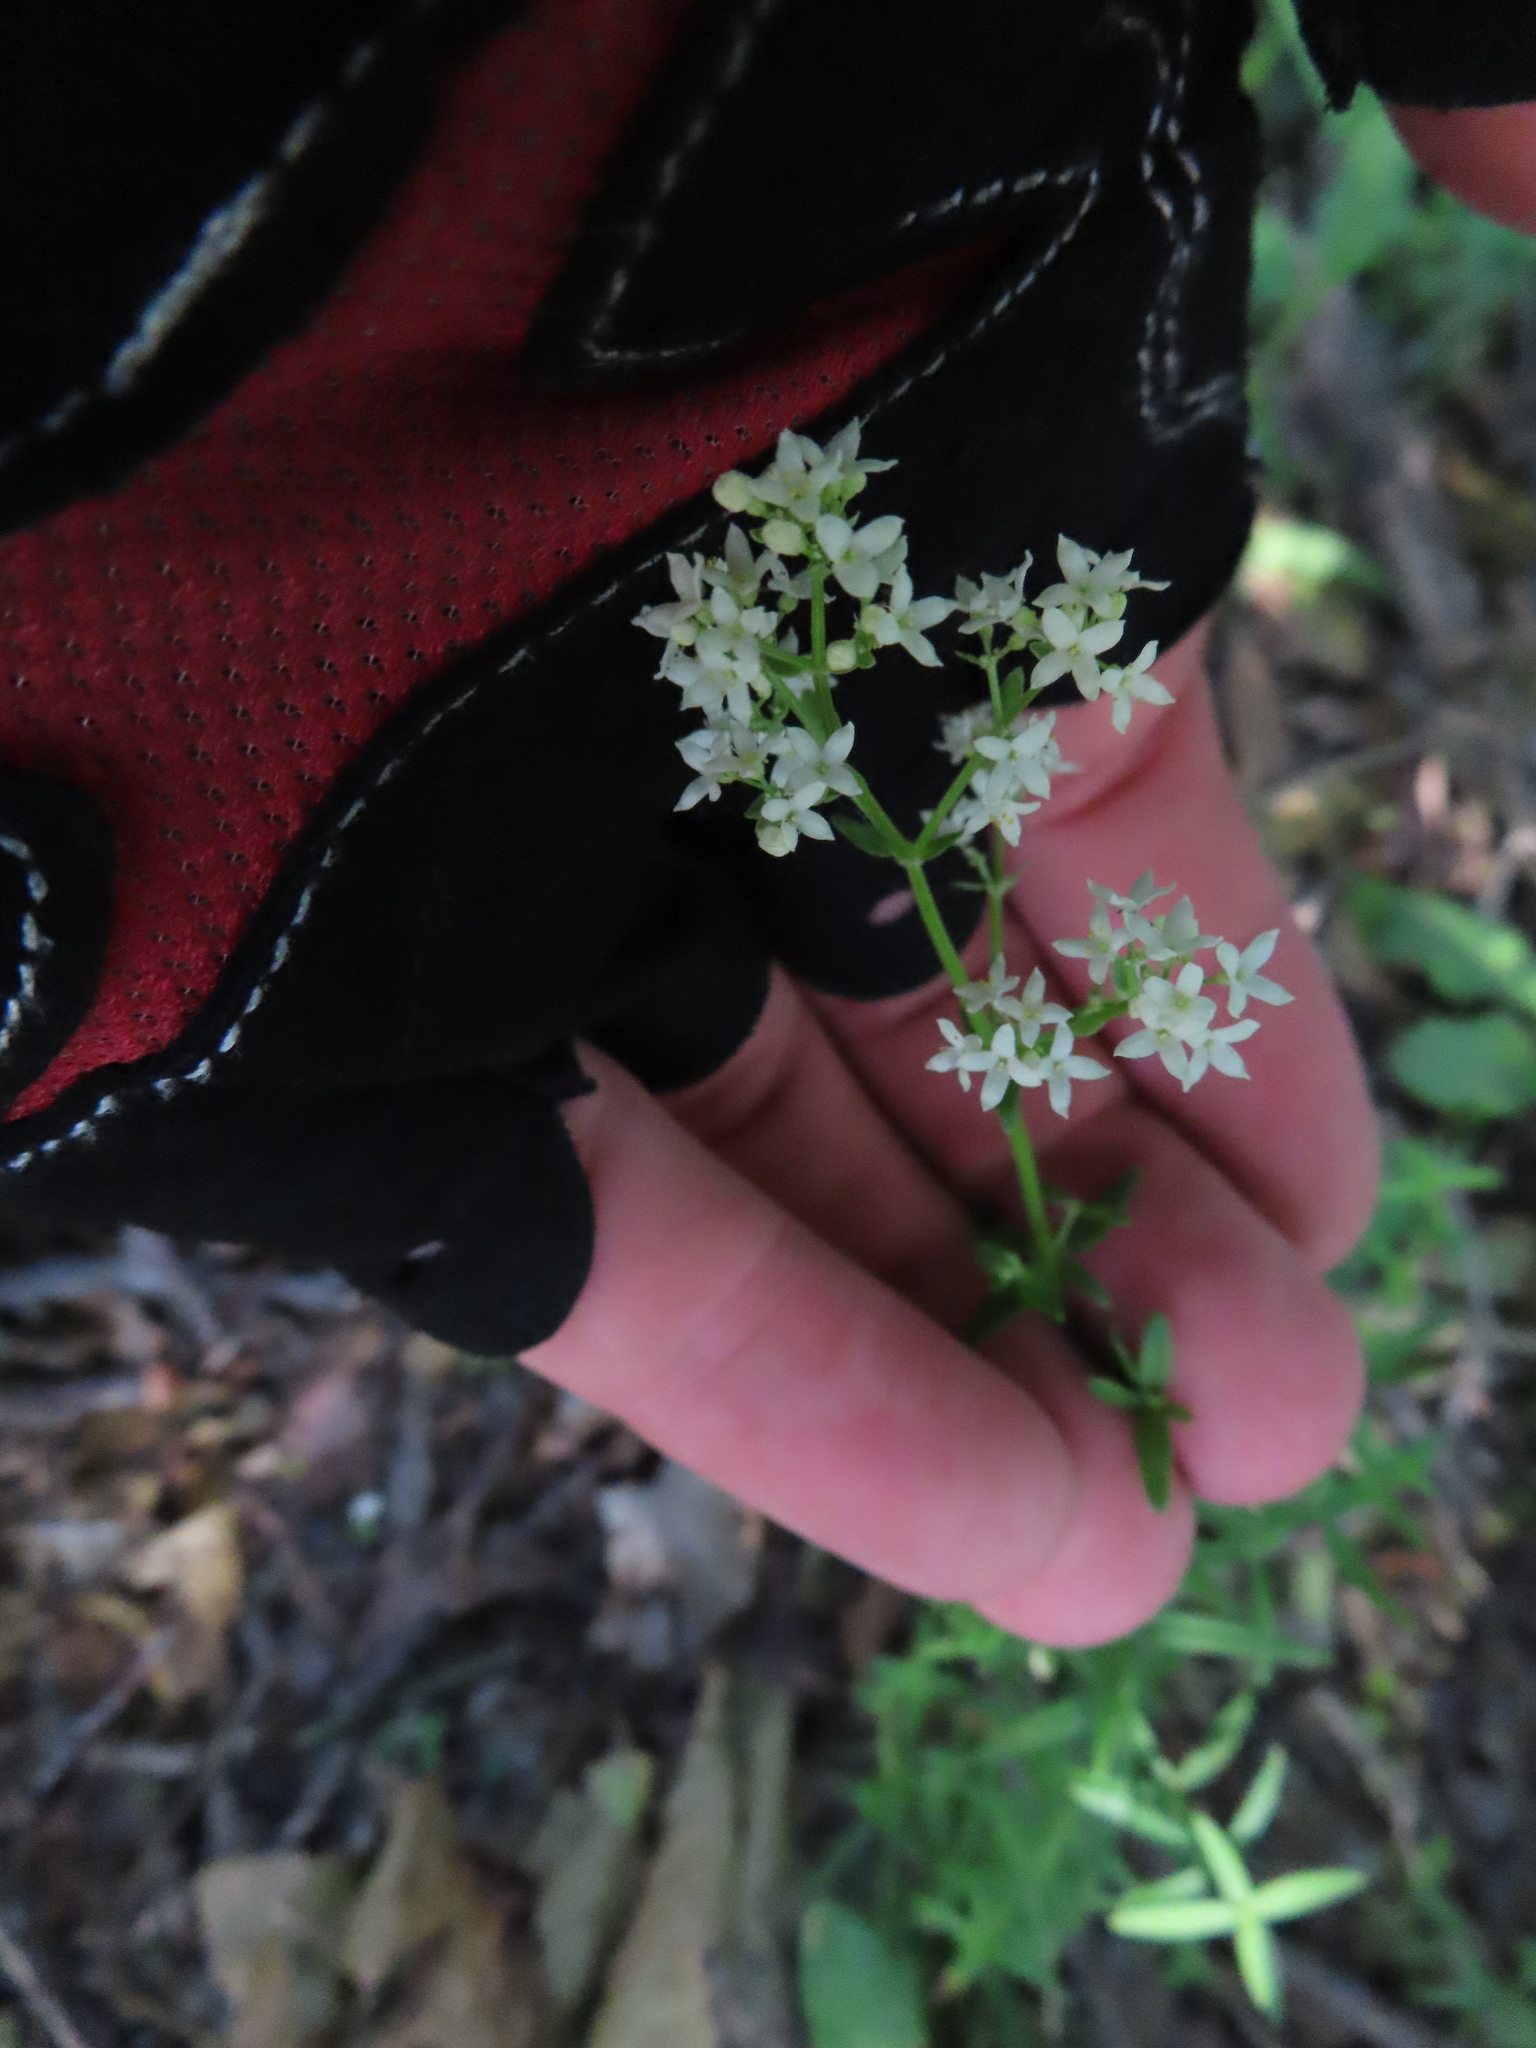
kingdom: Plantae
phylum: Tracheophyta
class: Magnoliopsida
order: Gentianales
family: Rubiaceae
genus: Galium
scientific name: Galium boreale
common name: Northern bedstraw
